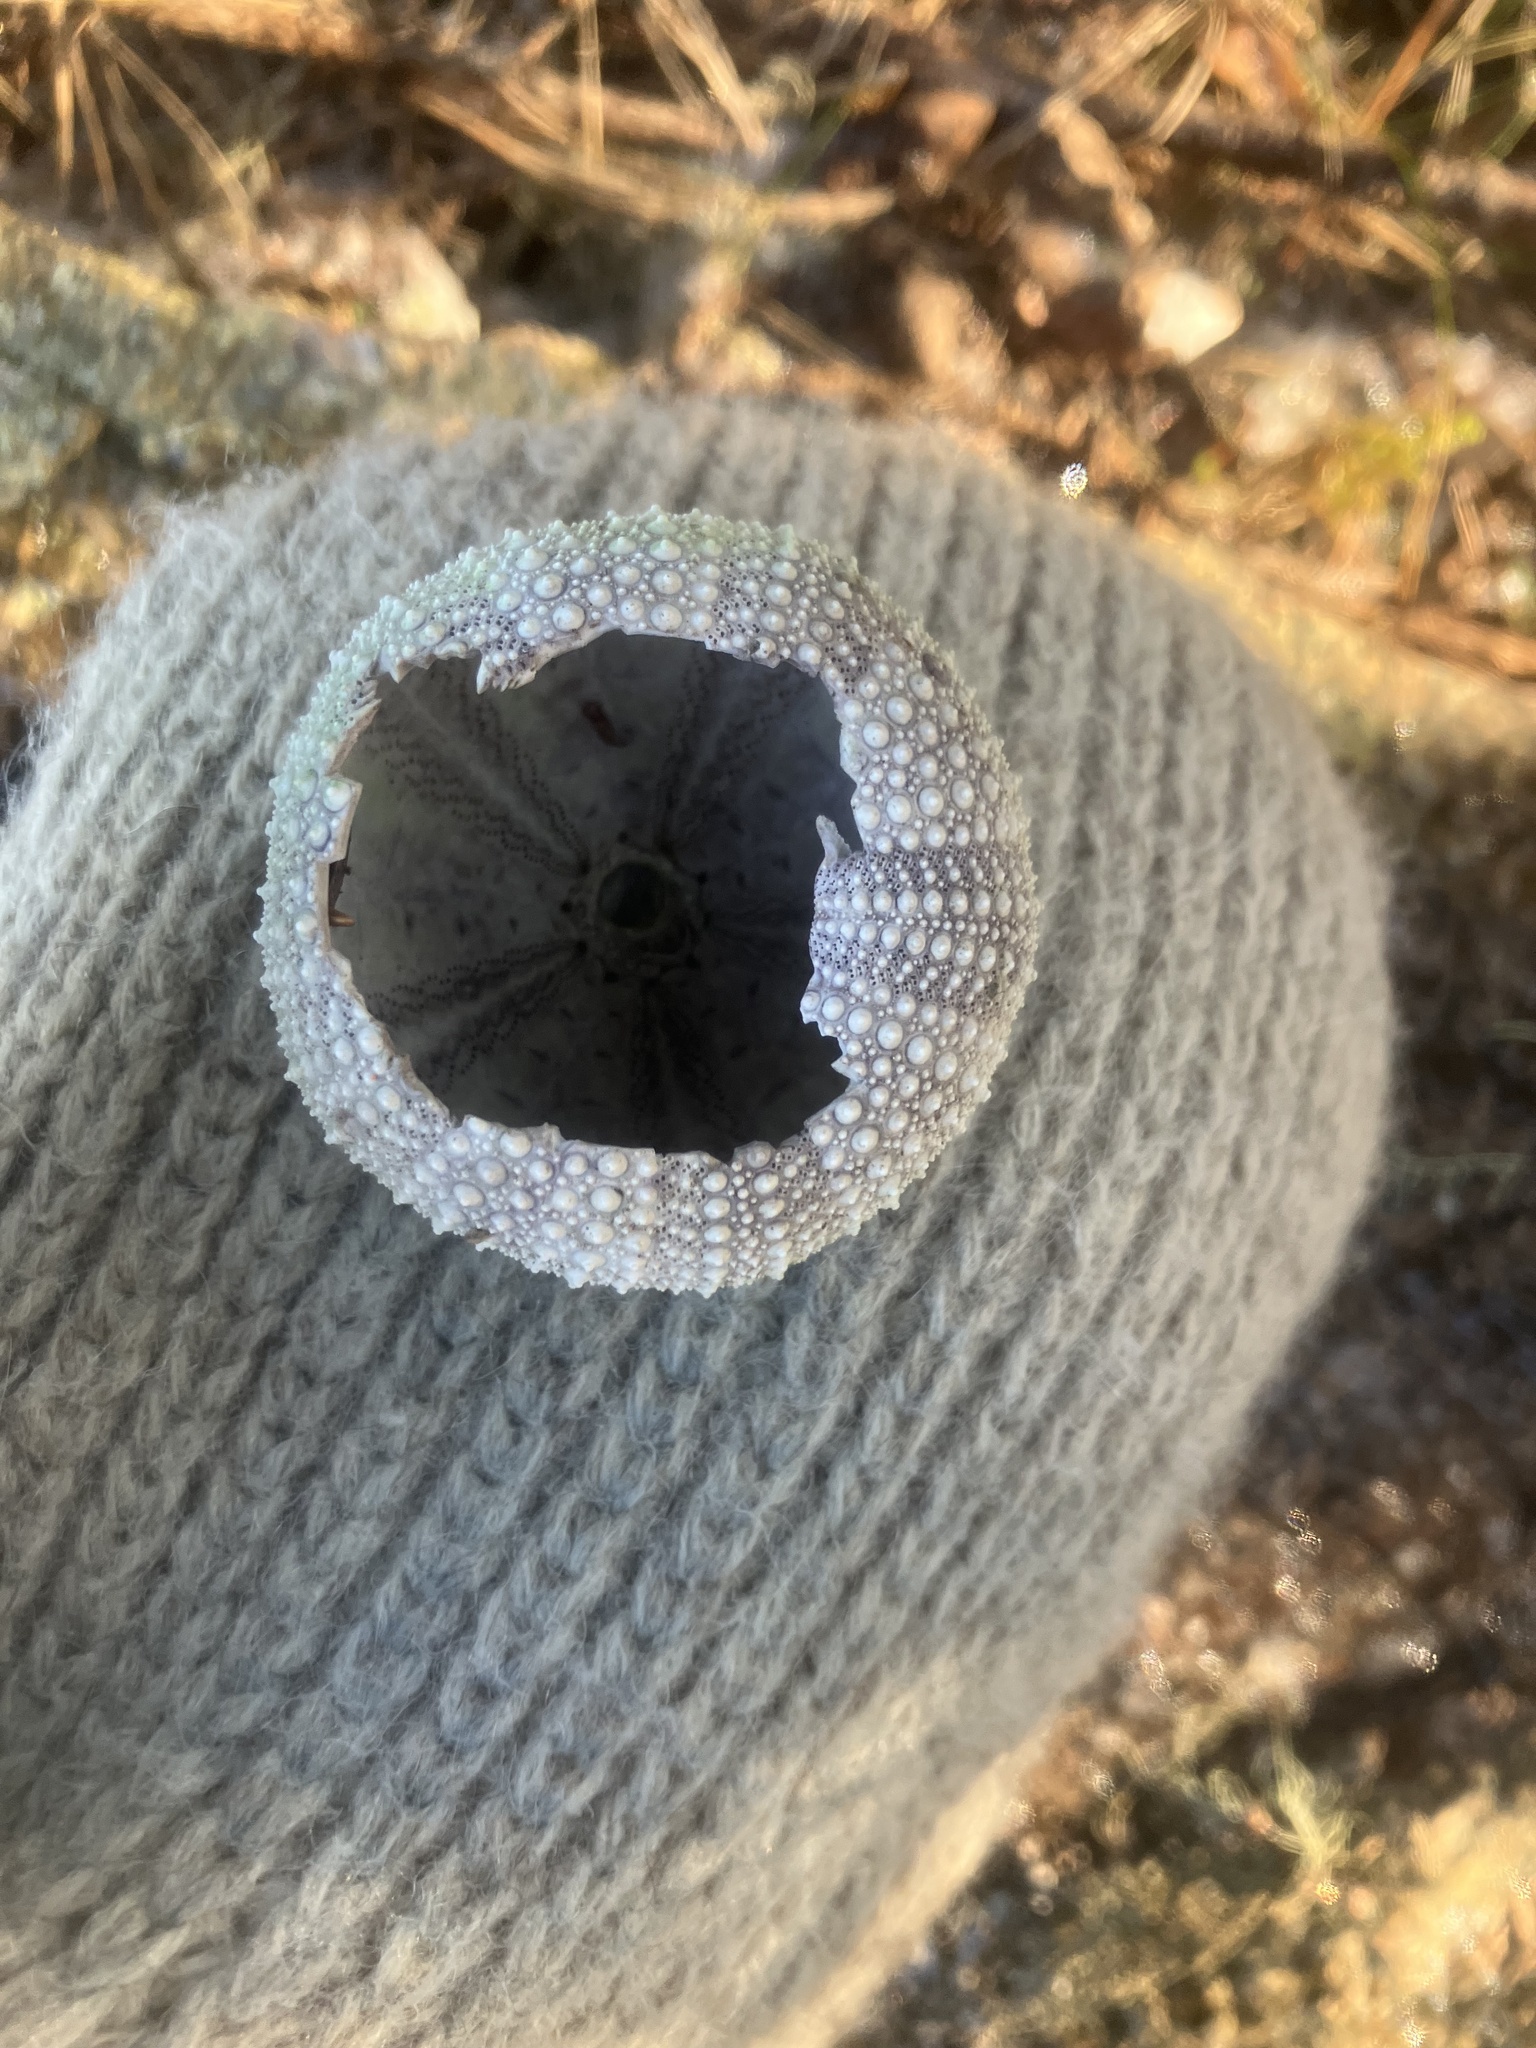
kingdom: Animalia
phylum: Echinodermata
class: Echinoidea
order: Camarodonta
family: Strongylocentrotidae
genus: Strongylocentrotus
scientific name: Strongylocentrotus droebachiensis
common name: Northern sea urchin
